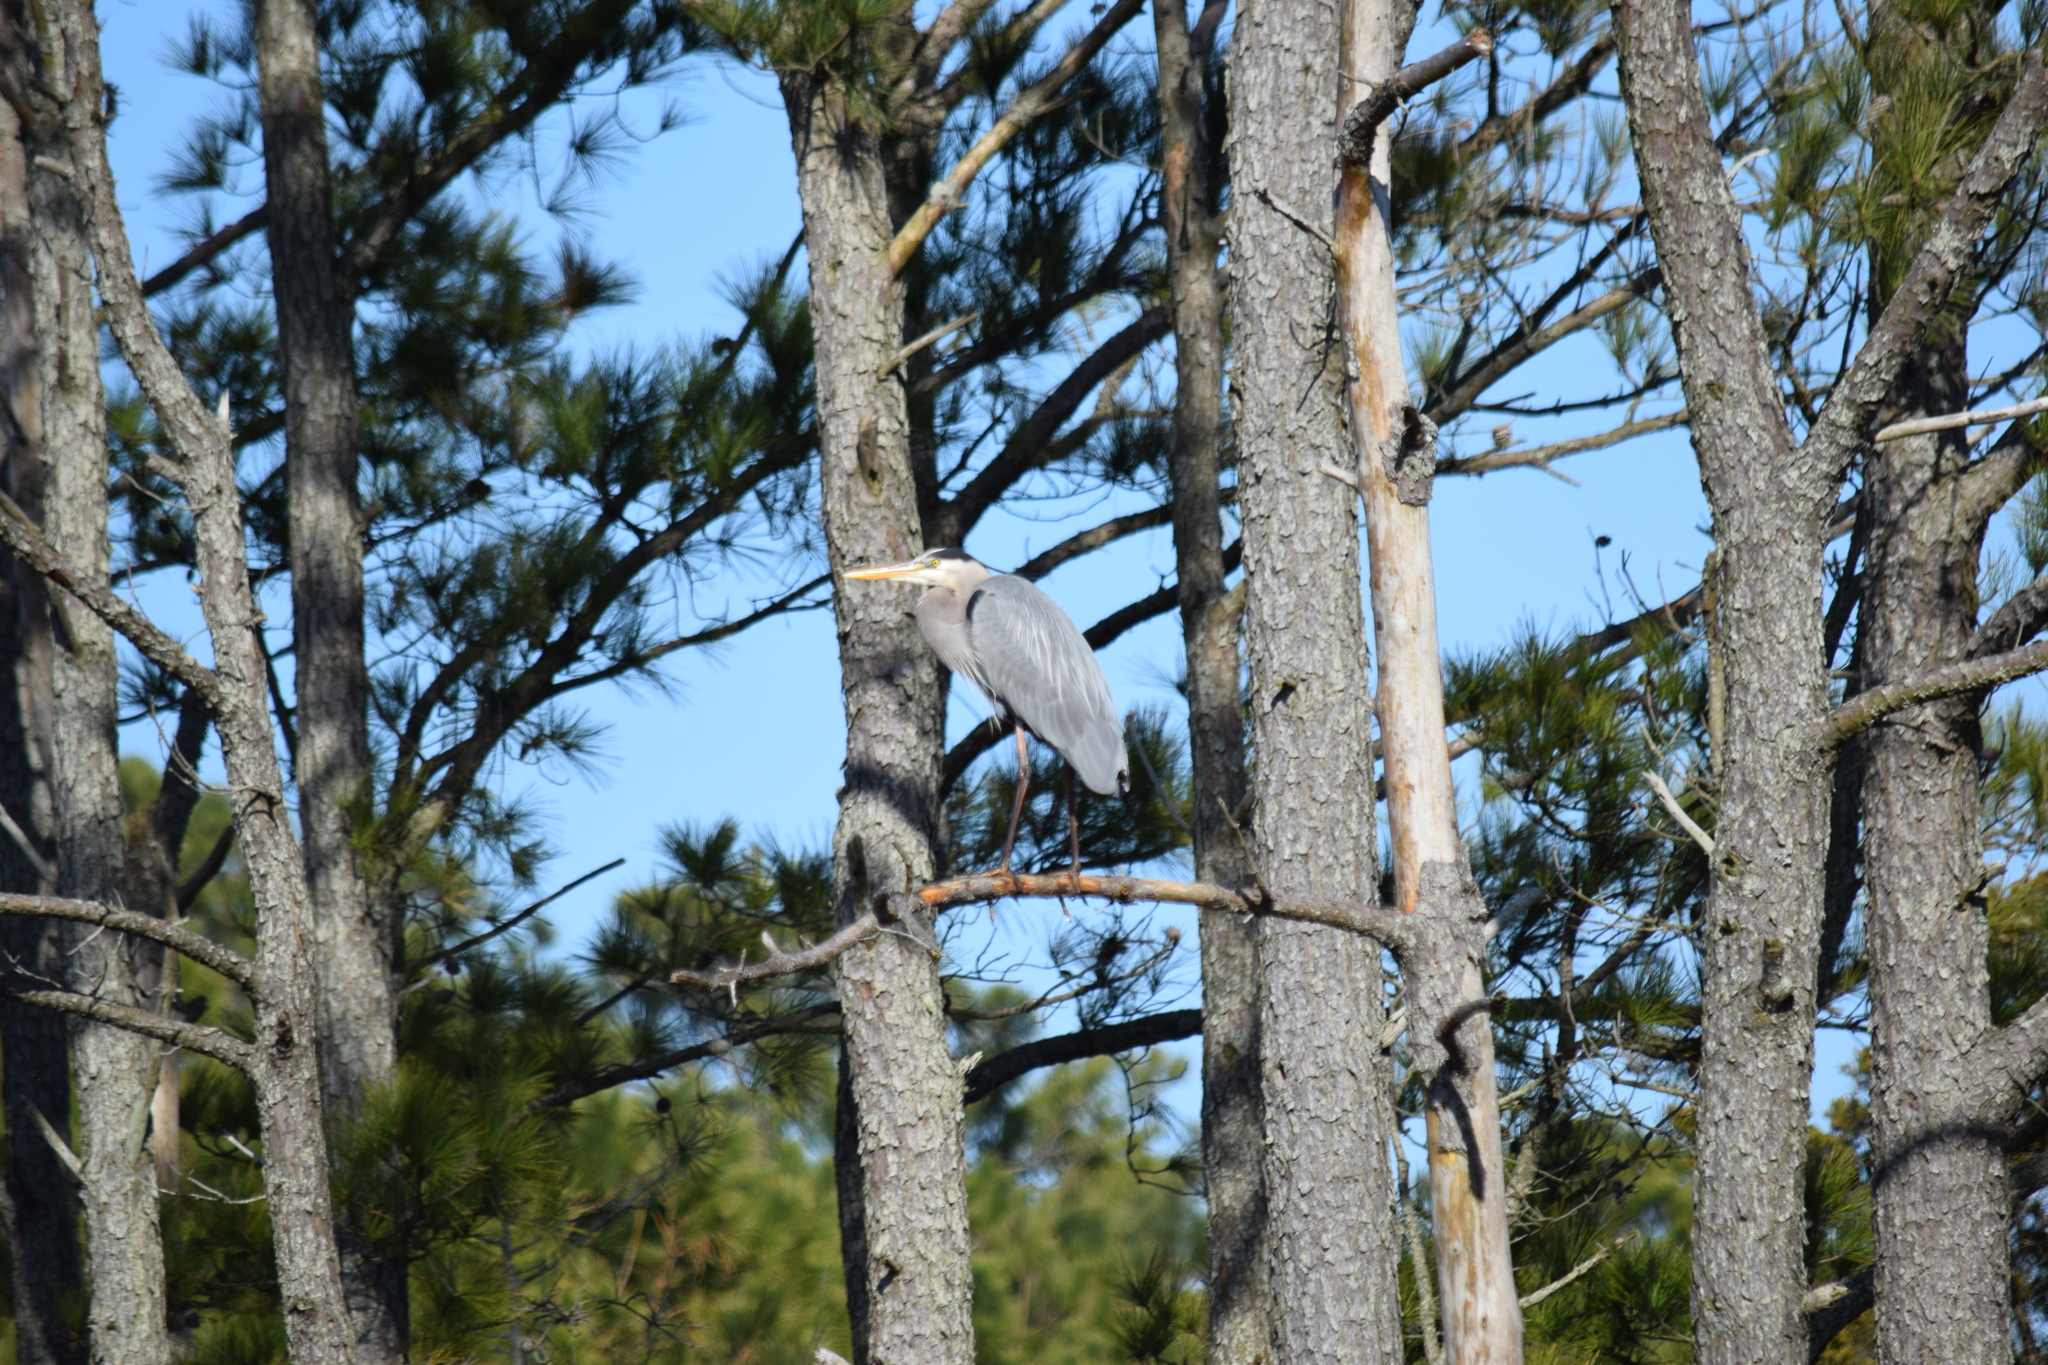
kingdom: Animalia
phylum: Chordata
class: Aves
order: Pelecaniformes
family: Ardeidae
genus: Ardea
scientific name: Ardea herodias
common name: Great blue heron
